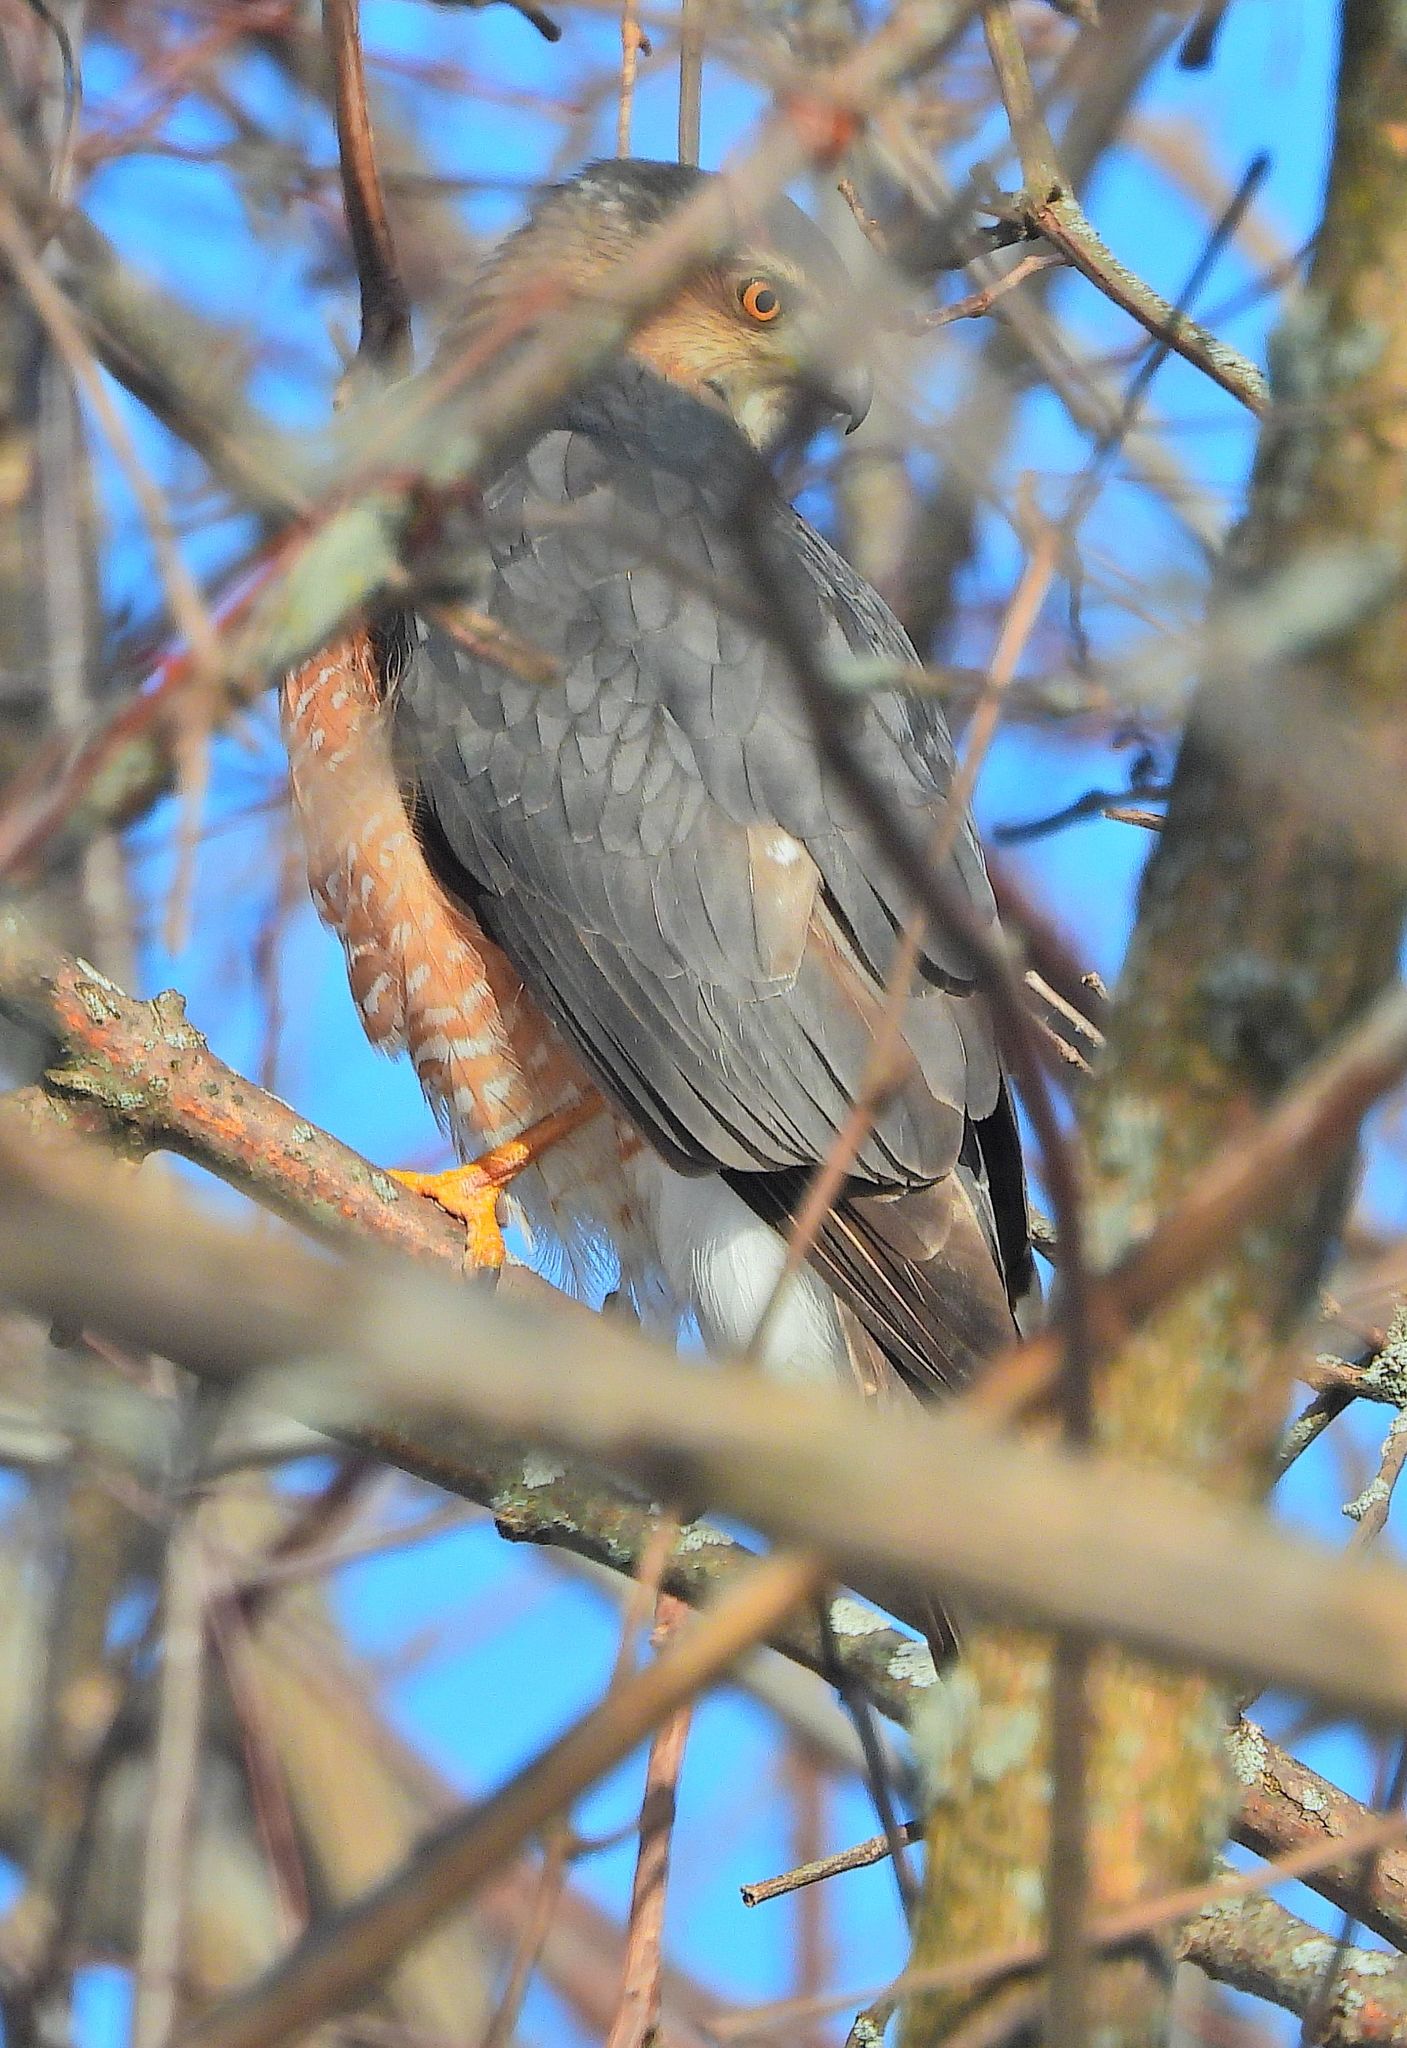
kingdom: Animalia
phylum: Chordata
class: Aves
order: Accipitriformes
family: Accipitridae
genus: Accipiter
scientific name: Accipiter cooperii
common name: Cooper's hawk
